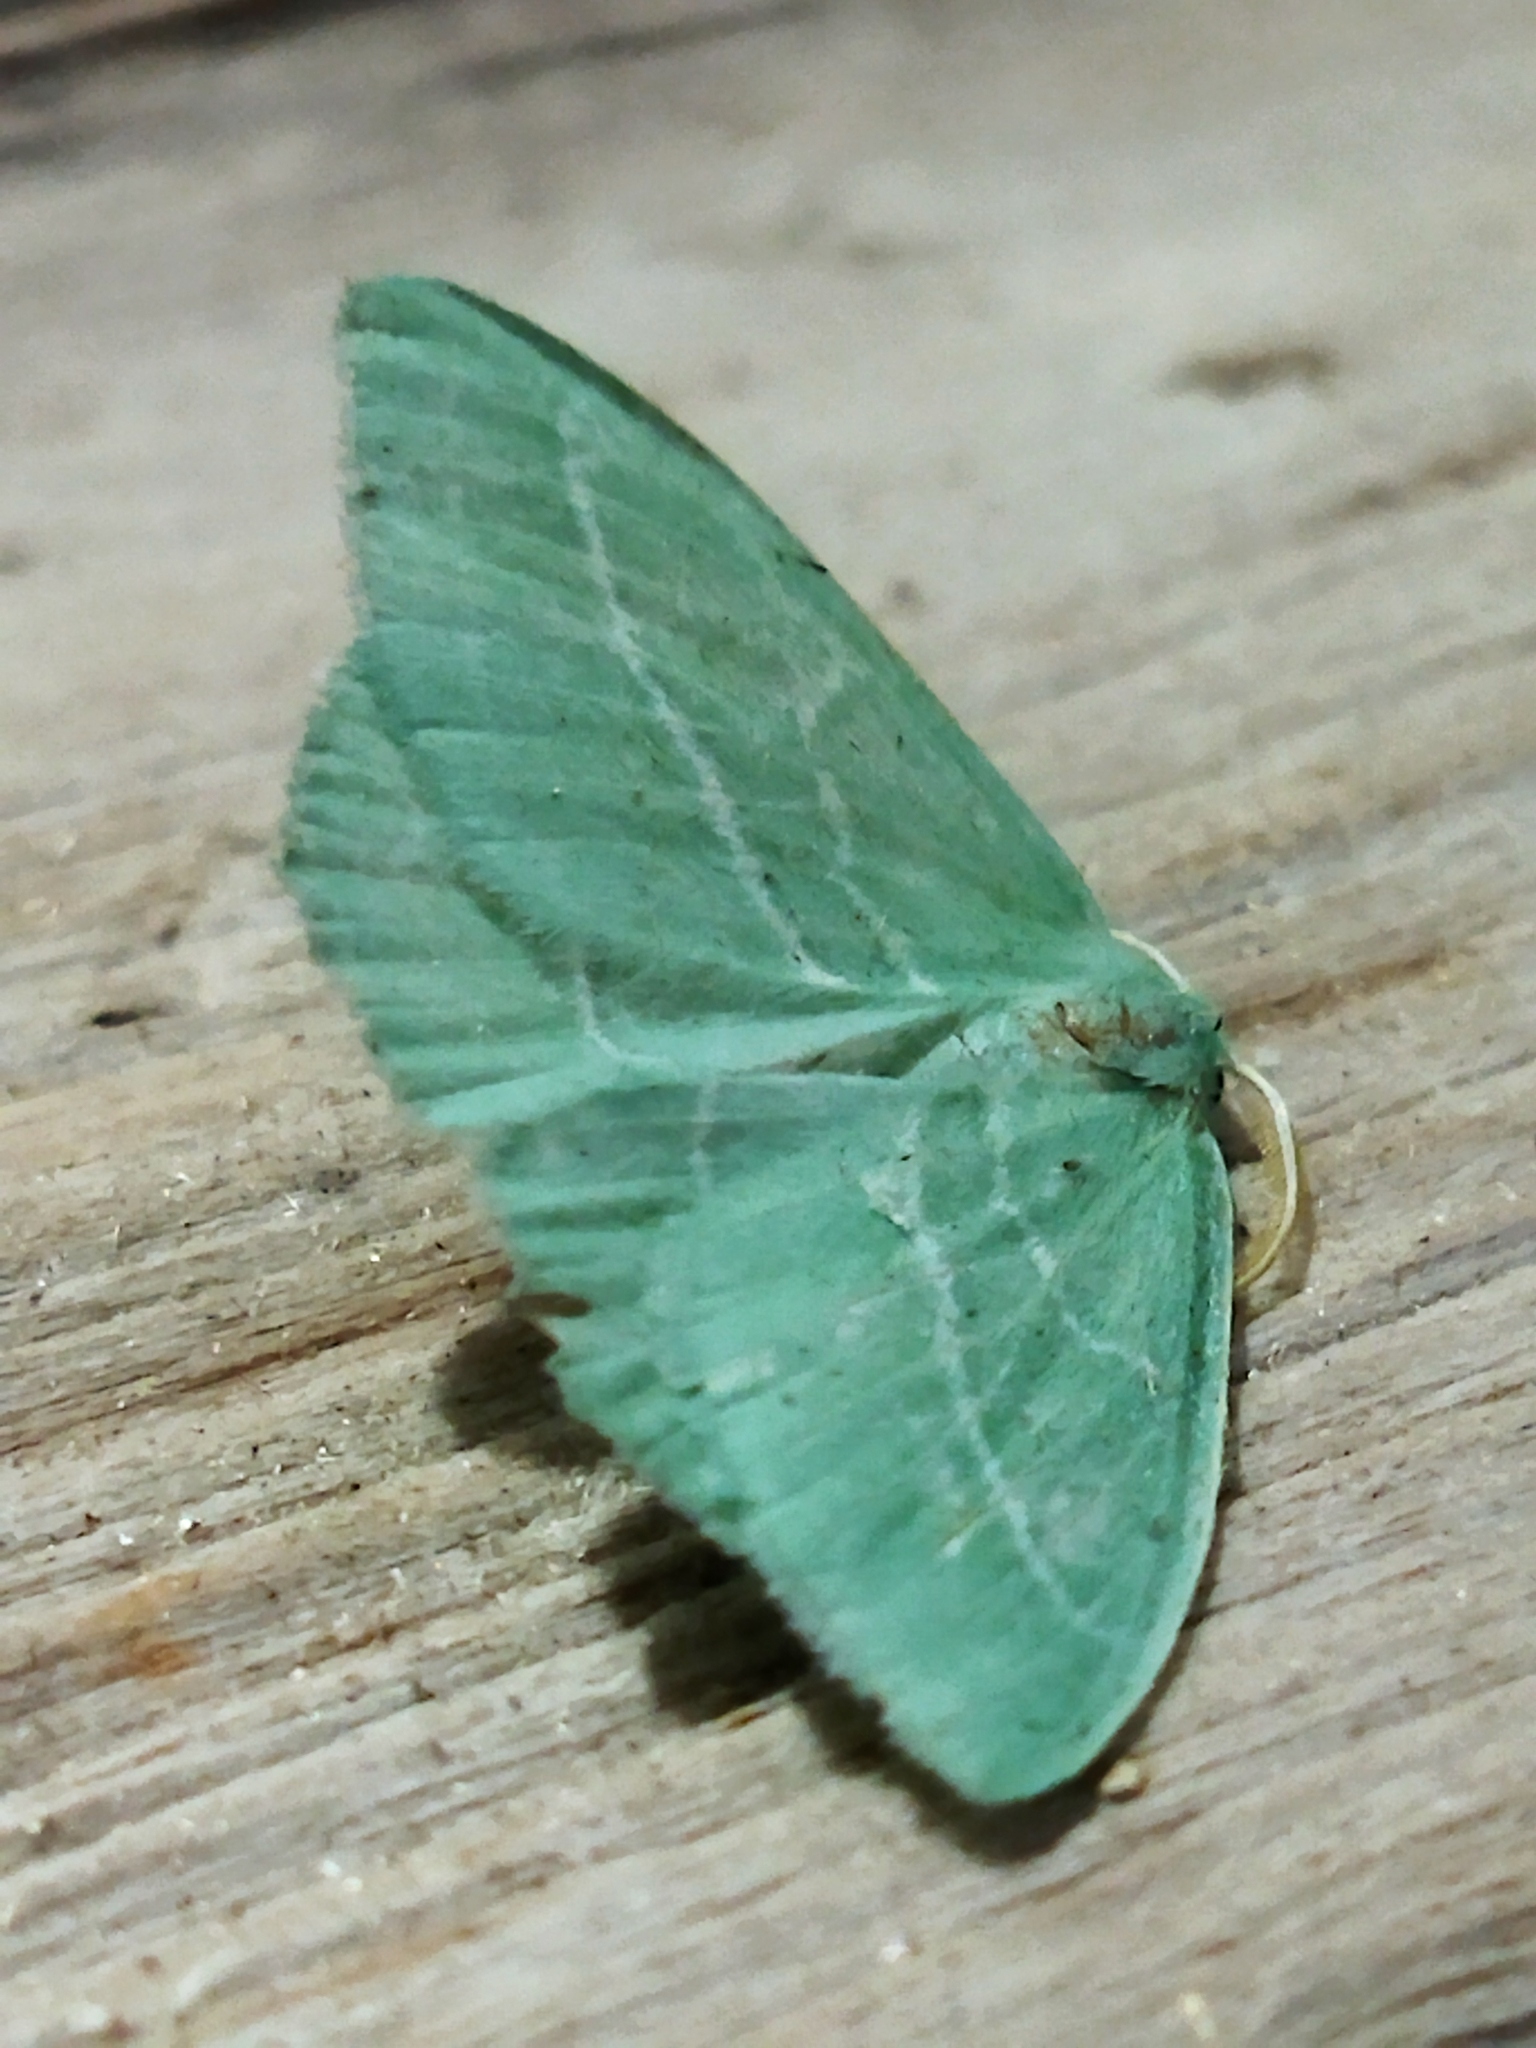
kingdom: Animalia
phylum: Arthropoda
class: Insecta
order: Lepidoptera
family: Geometridae
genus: Hemistola
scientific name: Hemistola chrysoprasaria
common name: Small emerald
